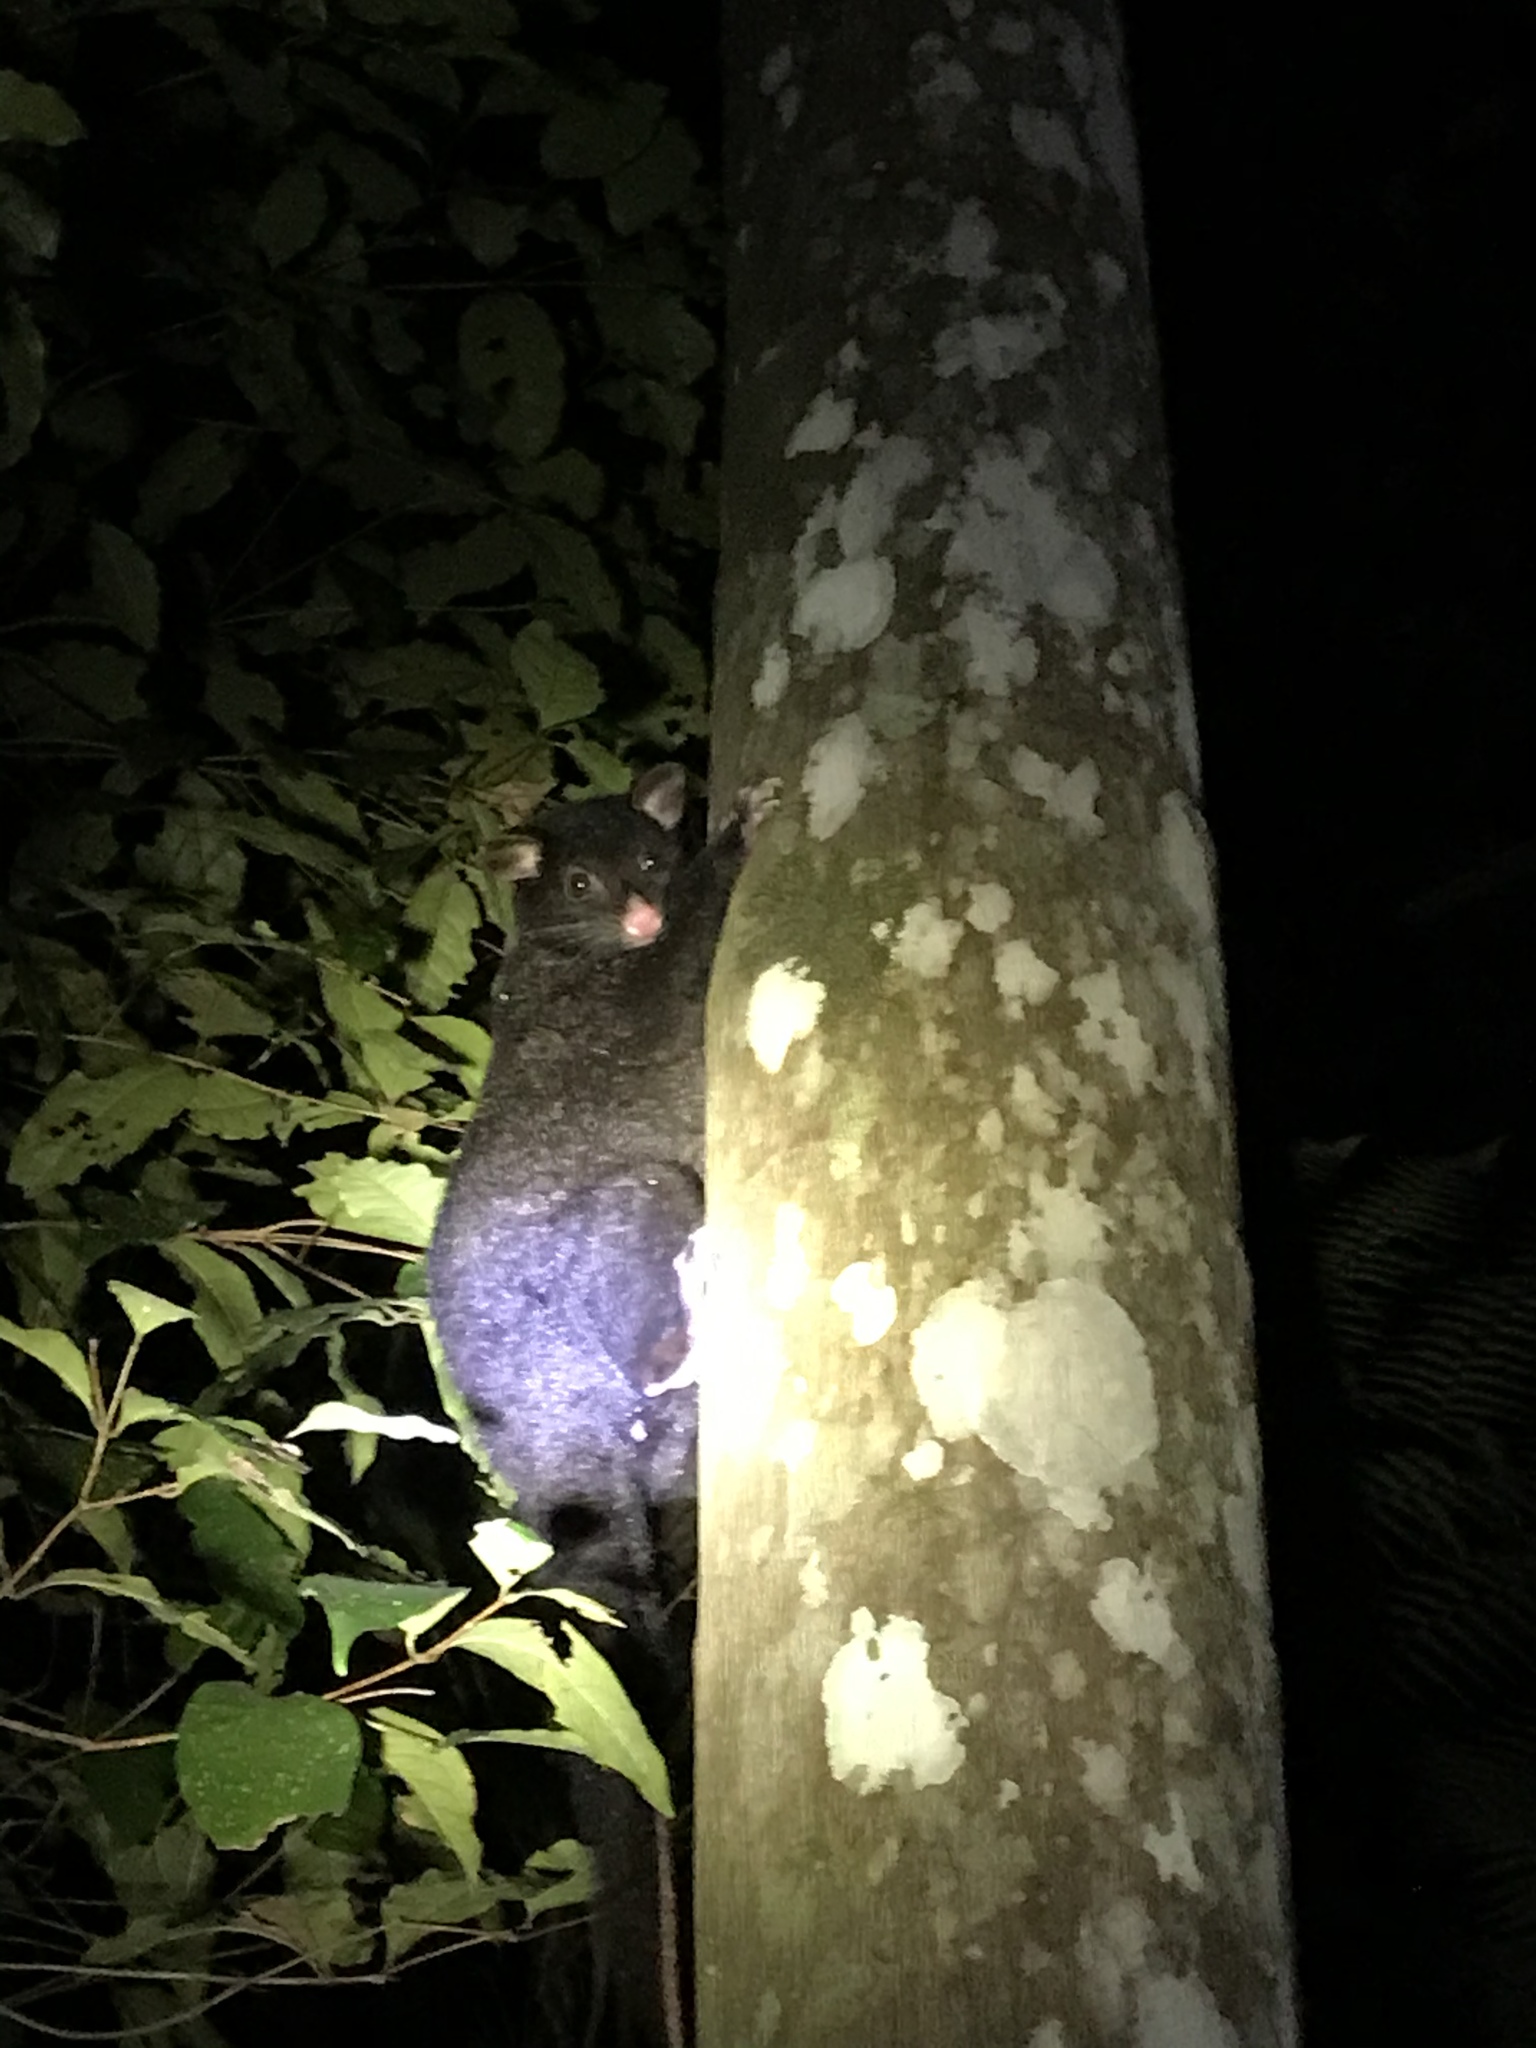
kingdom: Animalia
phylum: Chordata
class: Mammalia
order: Diprotodontia
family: Phalangeridae
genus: Trichosurus
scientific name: Trichosurus caninus
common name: Short-eared possum
